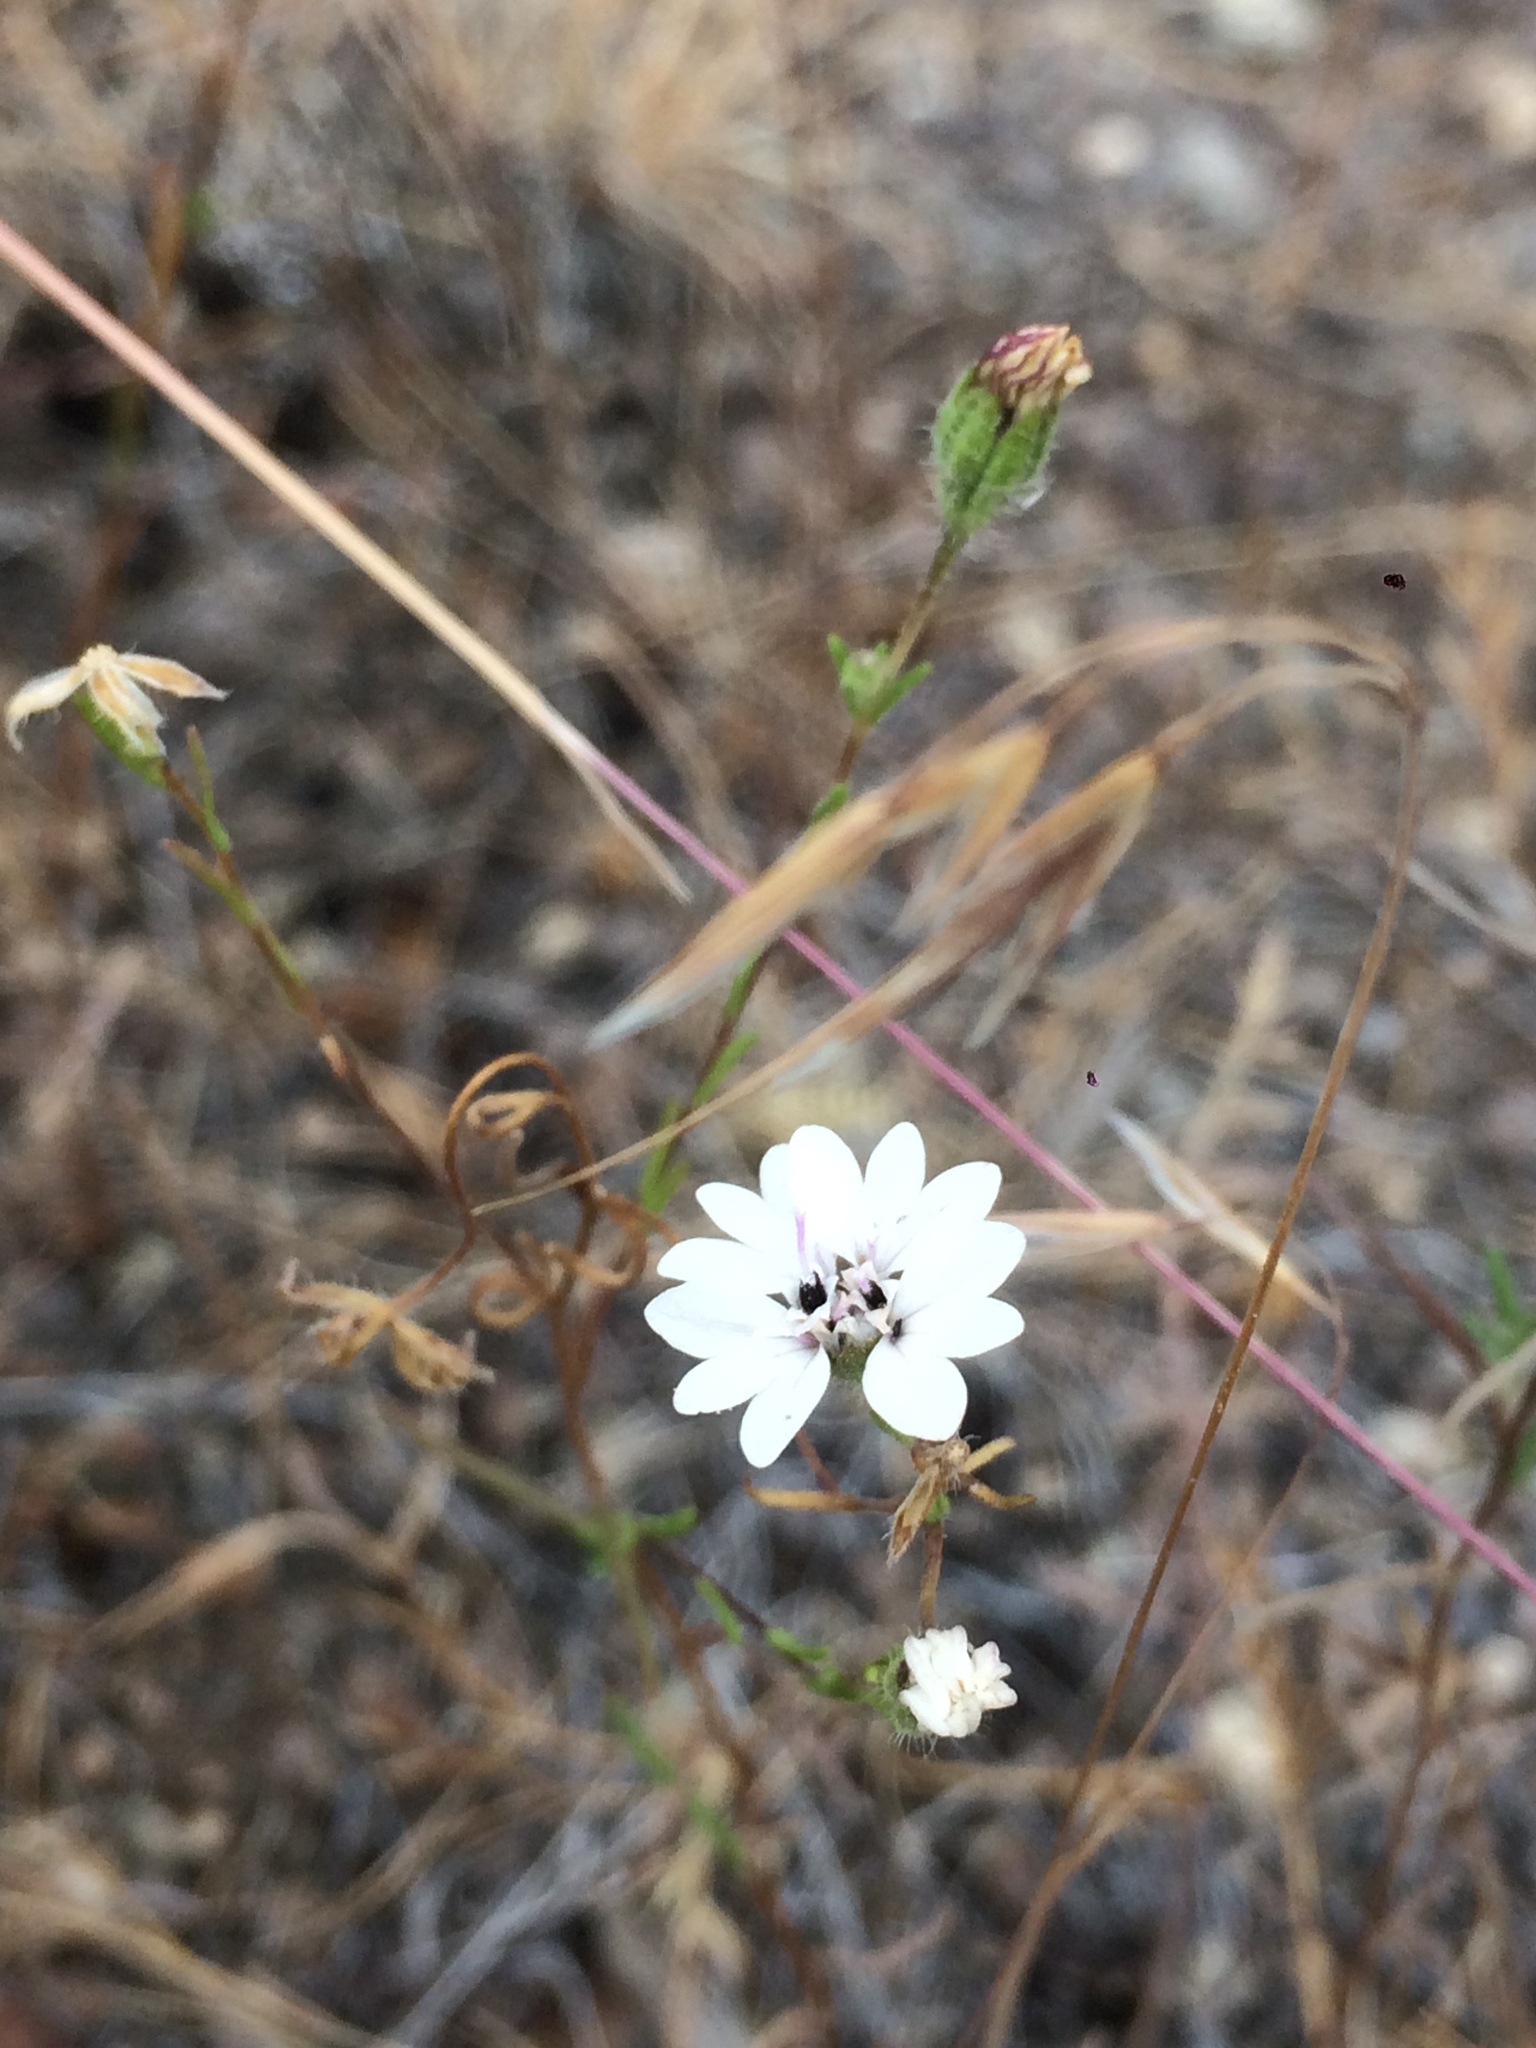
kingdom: Plantae
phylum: Tracheophyta
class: Magnoliopsida
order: Asterales
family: Asteraceae
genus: Blepharipappus
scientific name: Blepharipappus scaber
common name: Rough blepharipappus
